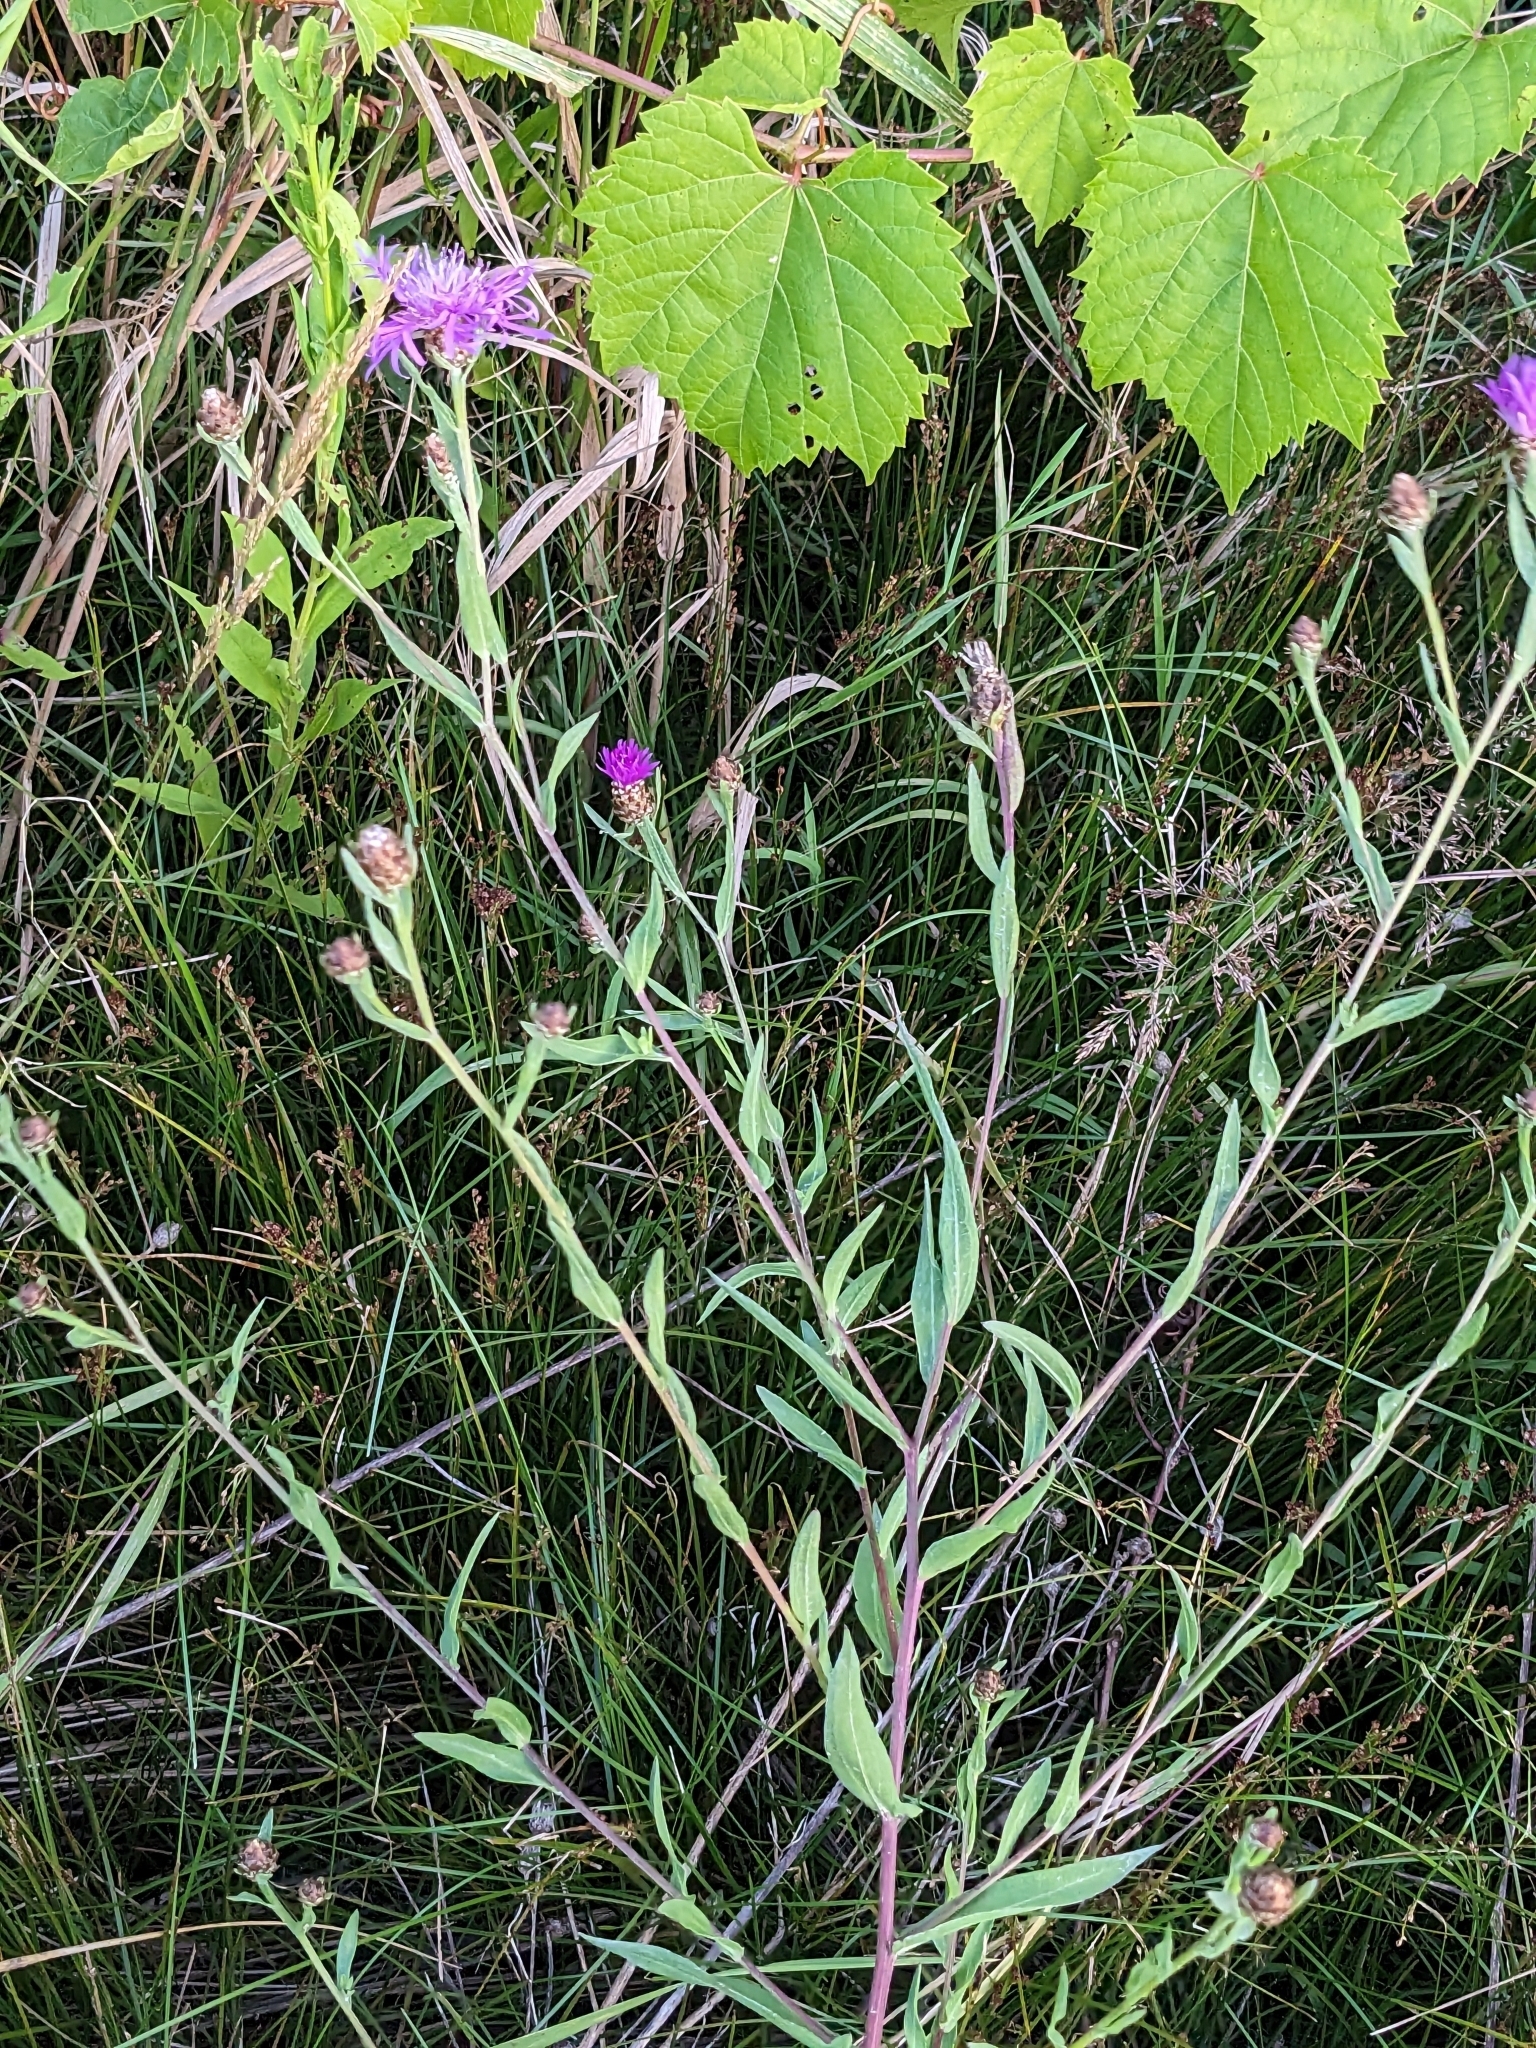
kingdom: Plantae
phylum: Tracheophyta
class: Magnoliopsida
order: Asterales
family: Asteraceae
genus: Centaurea
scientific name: Centaurea jacea
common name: Brown knapweed
